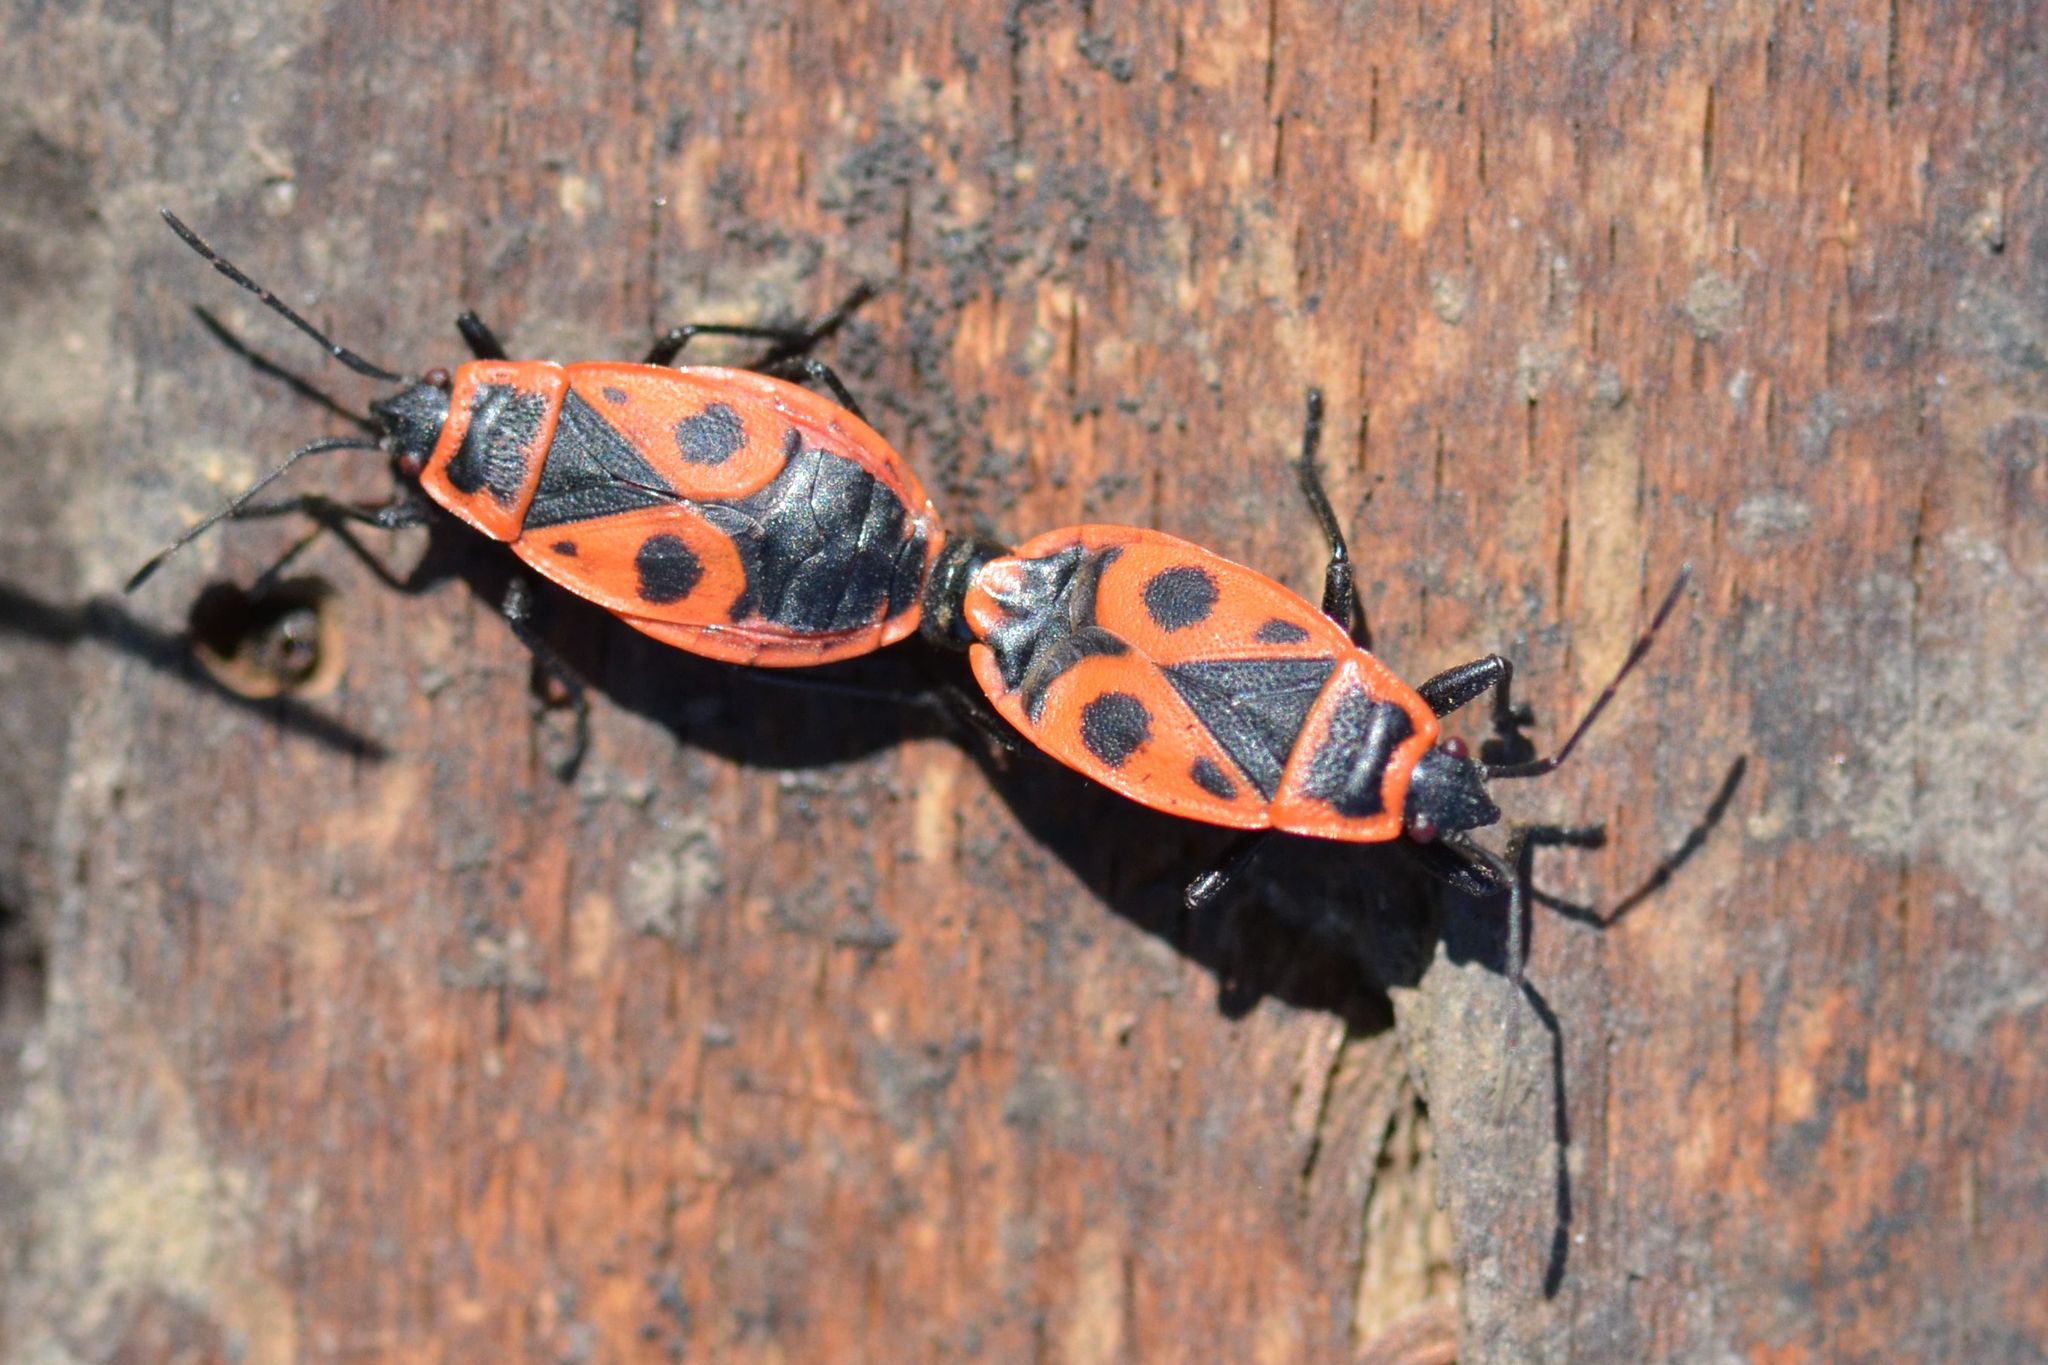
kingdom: Animalia
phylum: Arthropoda
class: Insecta
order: Hemiptera
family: Pyrrhocoridae
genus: Pyrrhocoris
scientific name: Pyrrhocoris apterus
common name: Firebug
